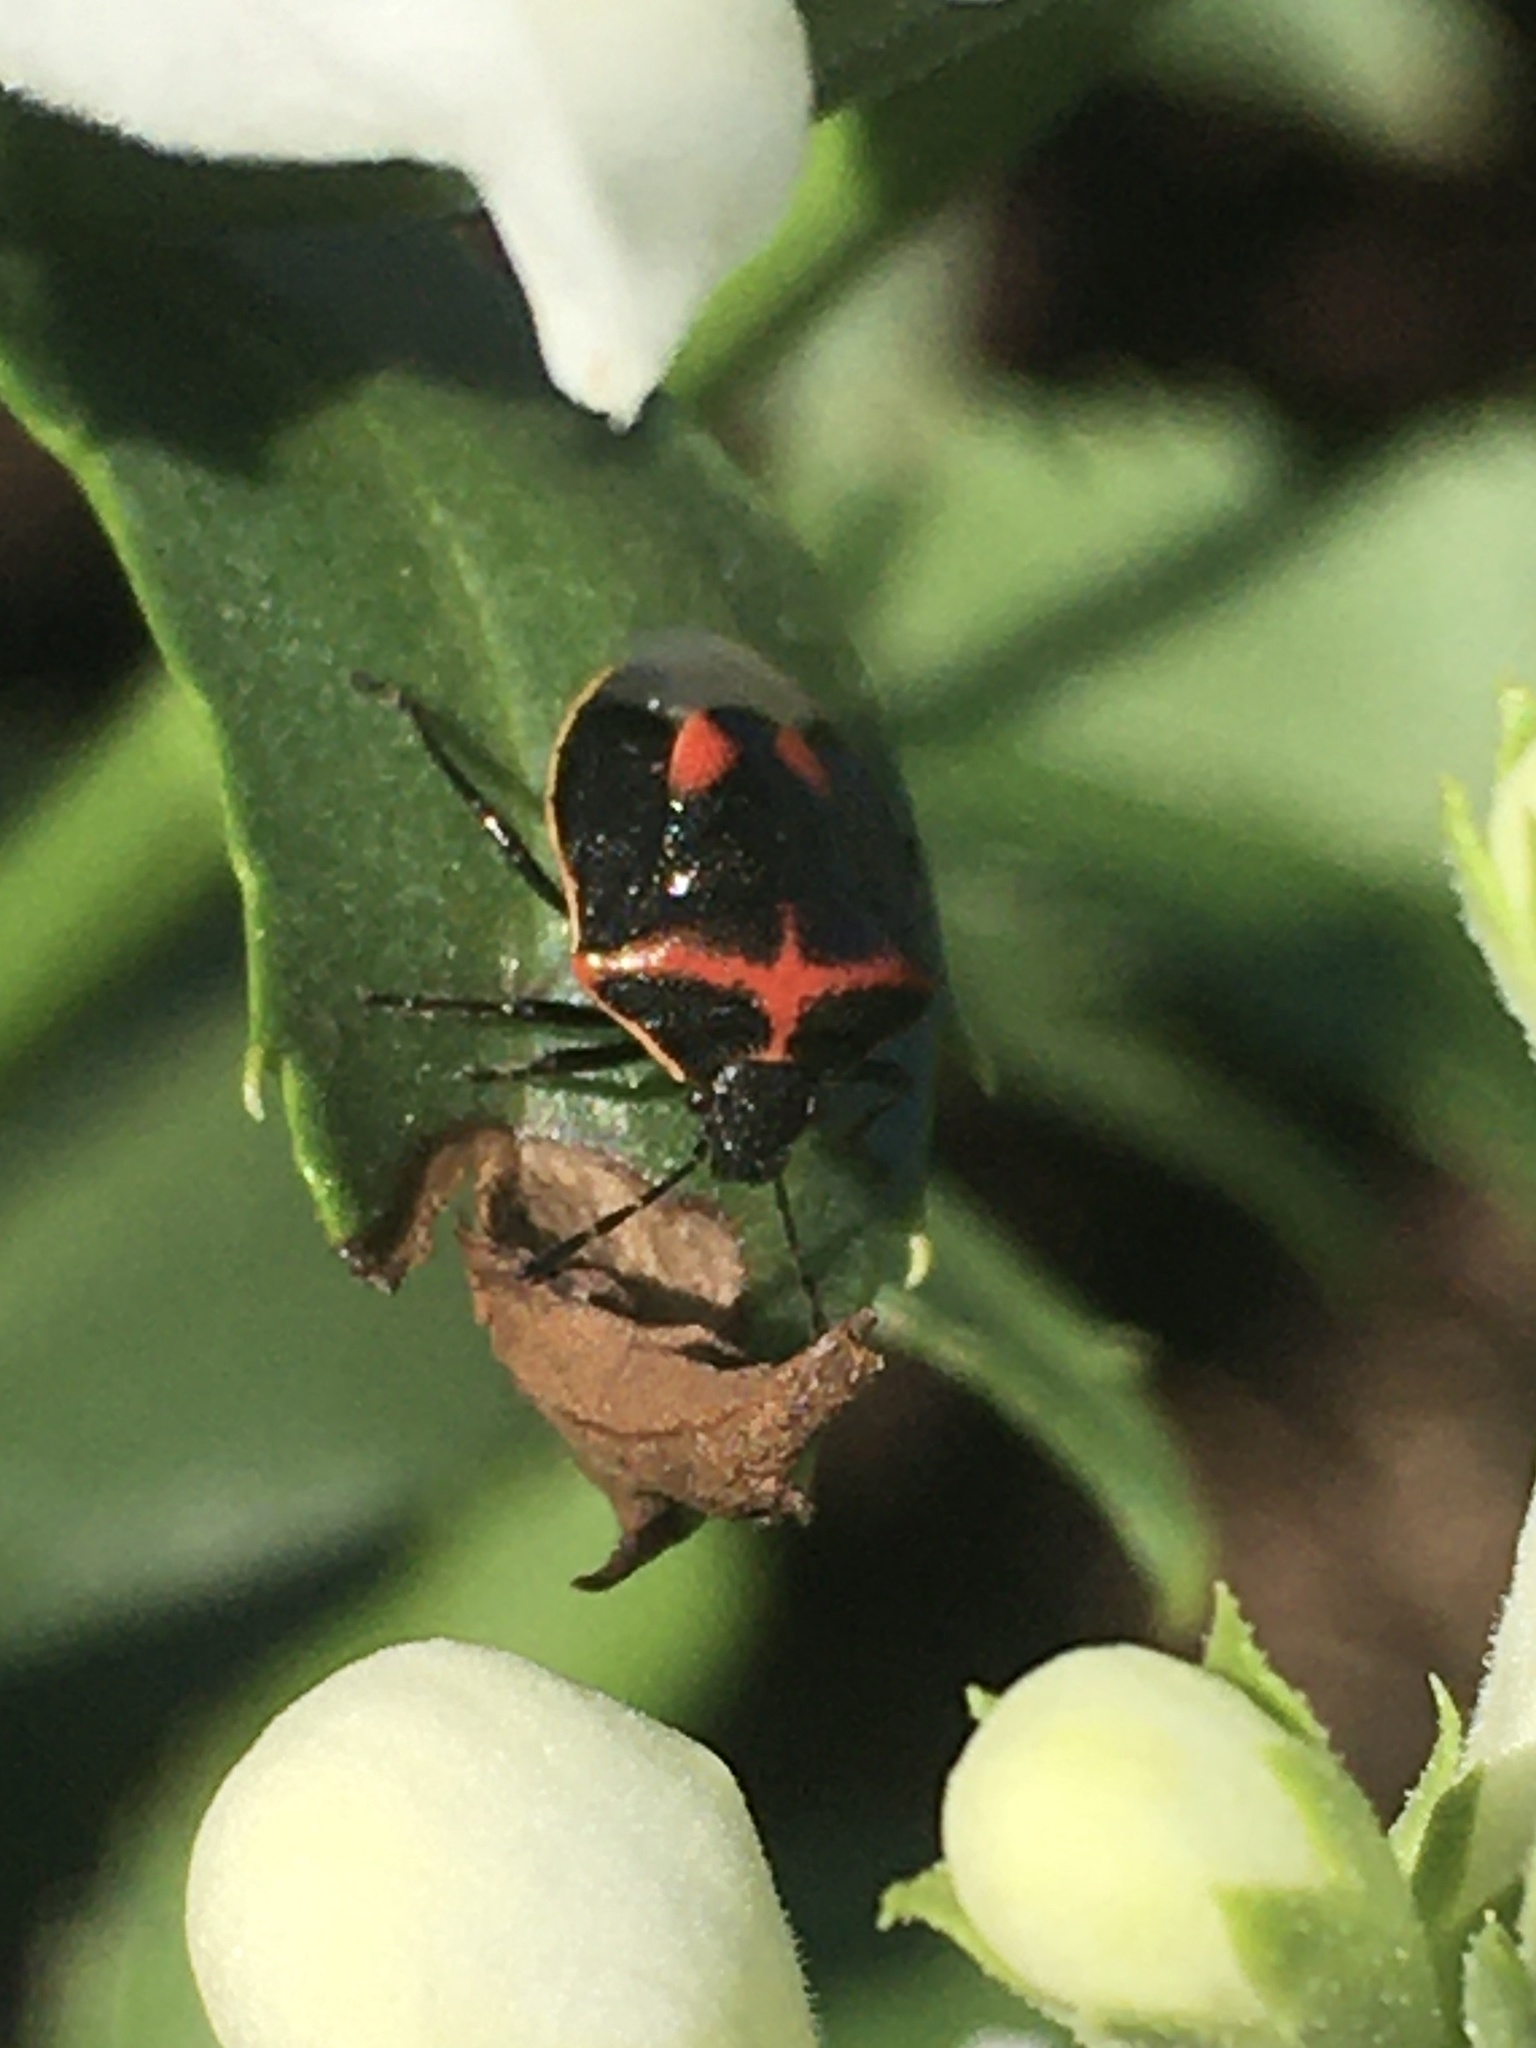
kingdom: Animalia
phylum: Arthropoda
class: Insecta
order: Hemiptera
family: Pentatomidae
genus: Cosmopepla
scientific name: Cosmopepla lintneriana
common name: Twice-stabbed stink bug
